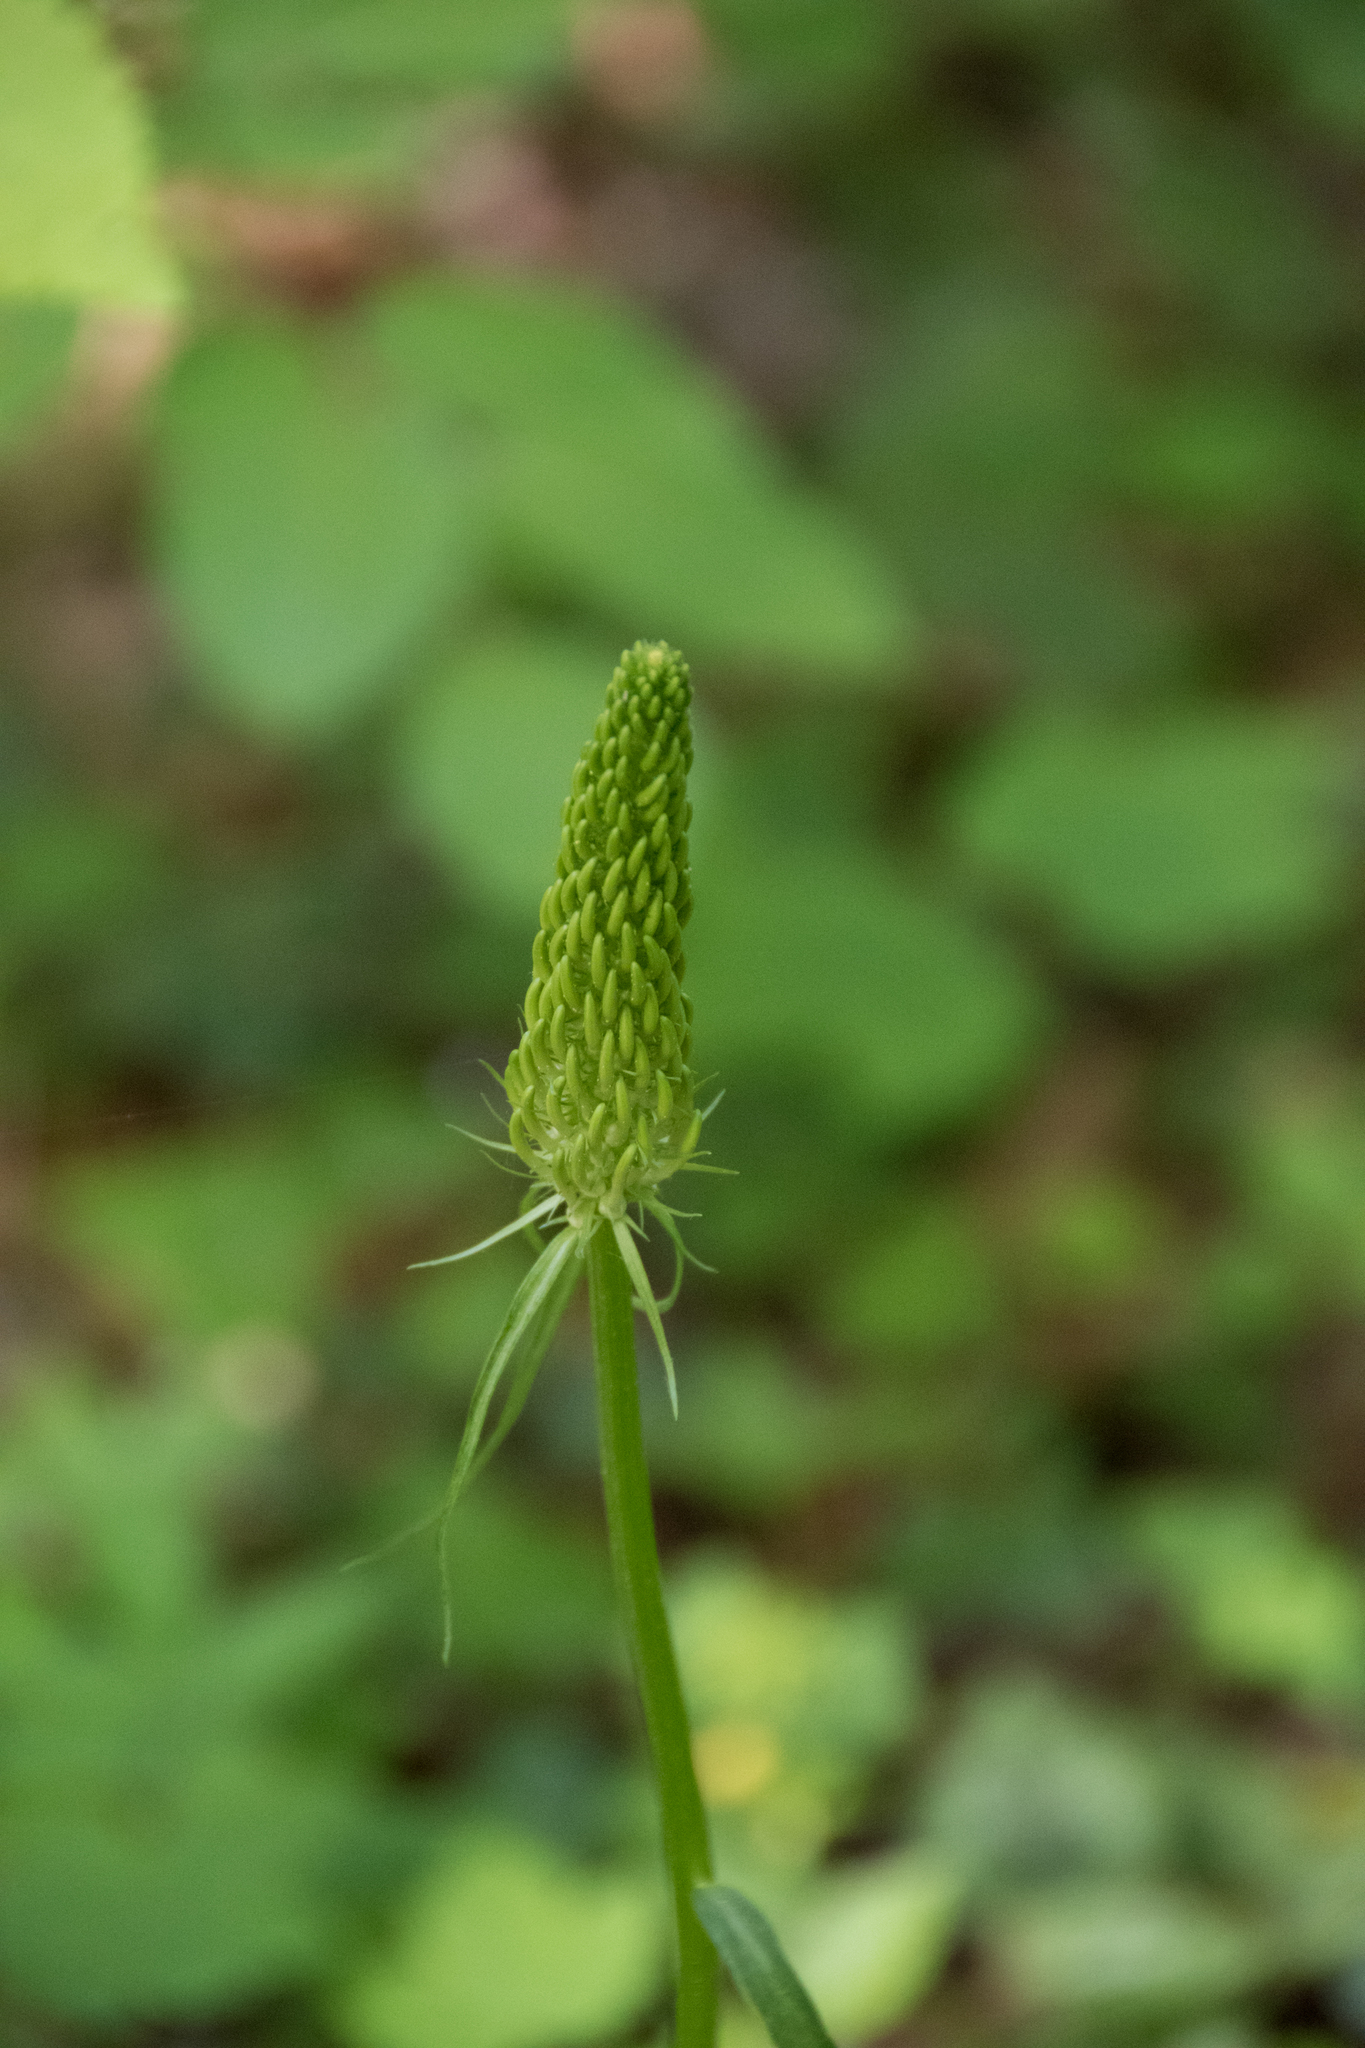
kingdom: Plantae
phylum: Tracheophyta
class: Magnoliopsida
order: Asterales
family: Campanulaceae
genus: Phyteuma
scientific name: Phyteuma spicatum
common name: Spiked rampion
